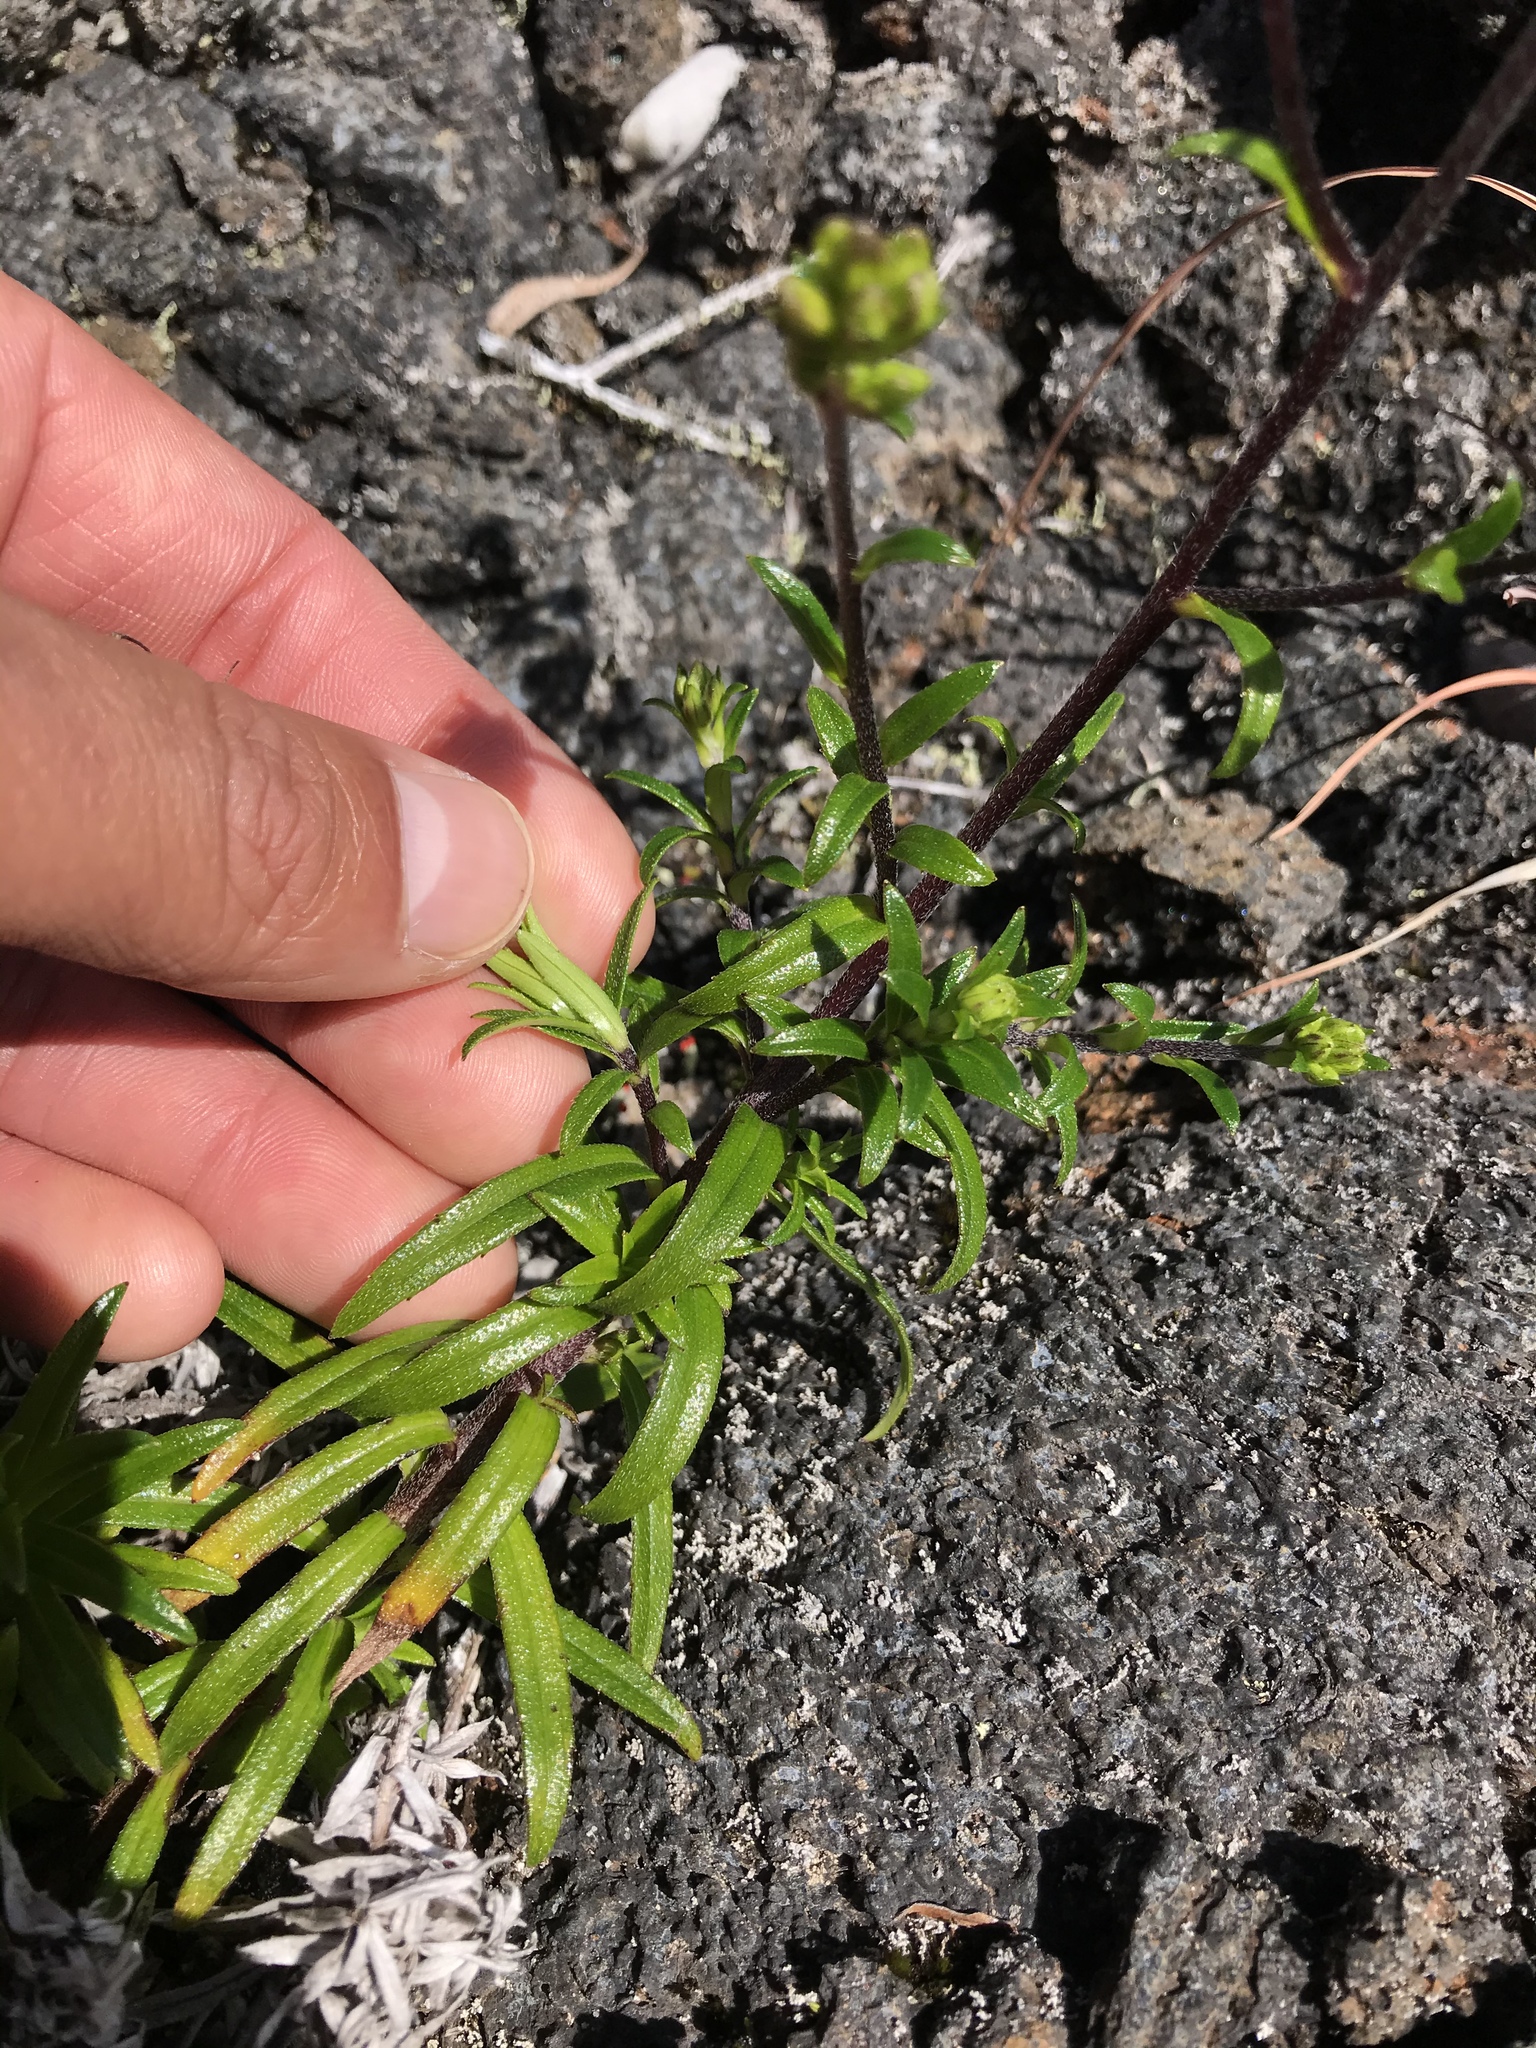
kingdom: Plantae
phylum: Tracheophyta
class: Magnoliopsida
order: Asterales
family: Asteraceae
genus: Dubautia
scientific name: Dubautia scabra
